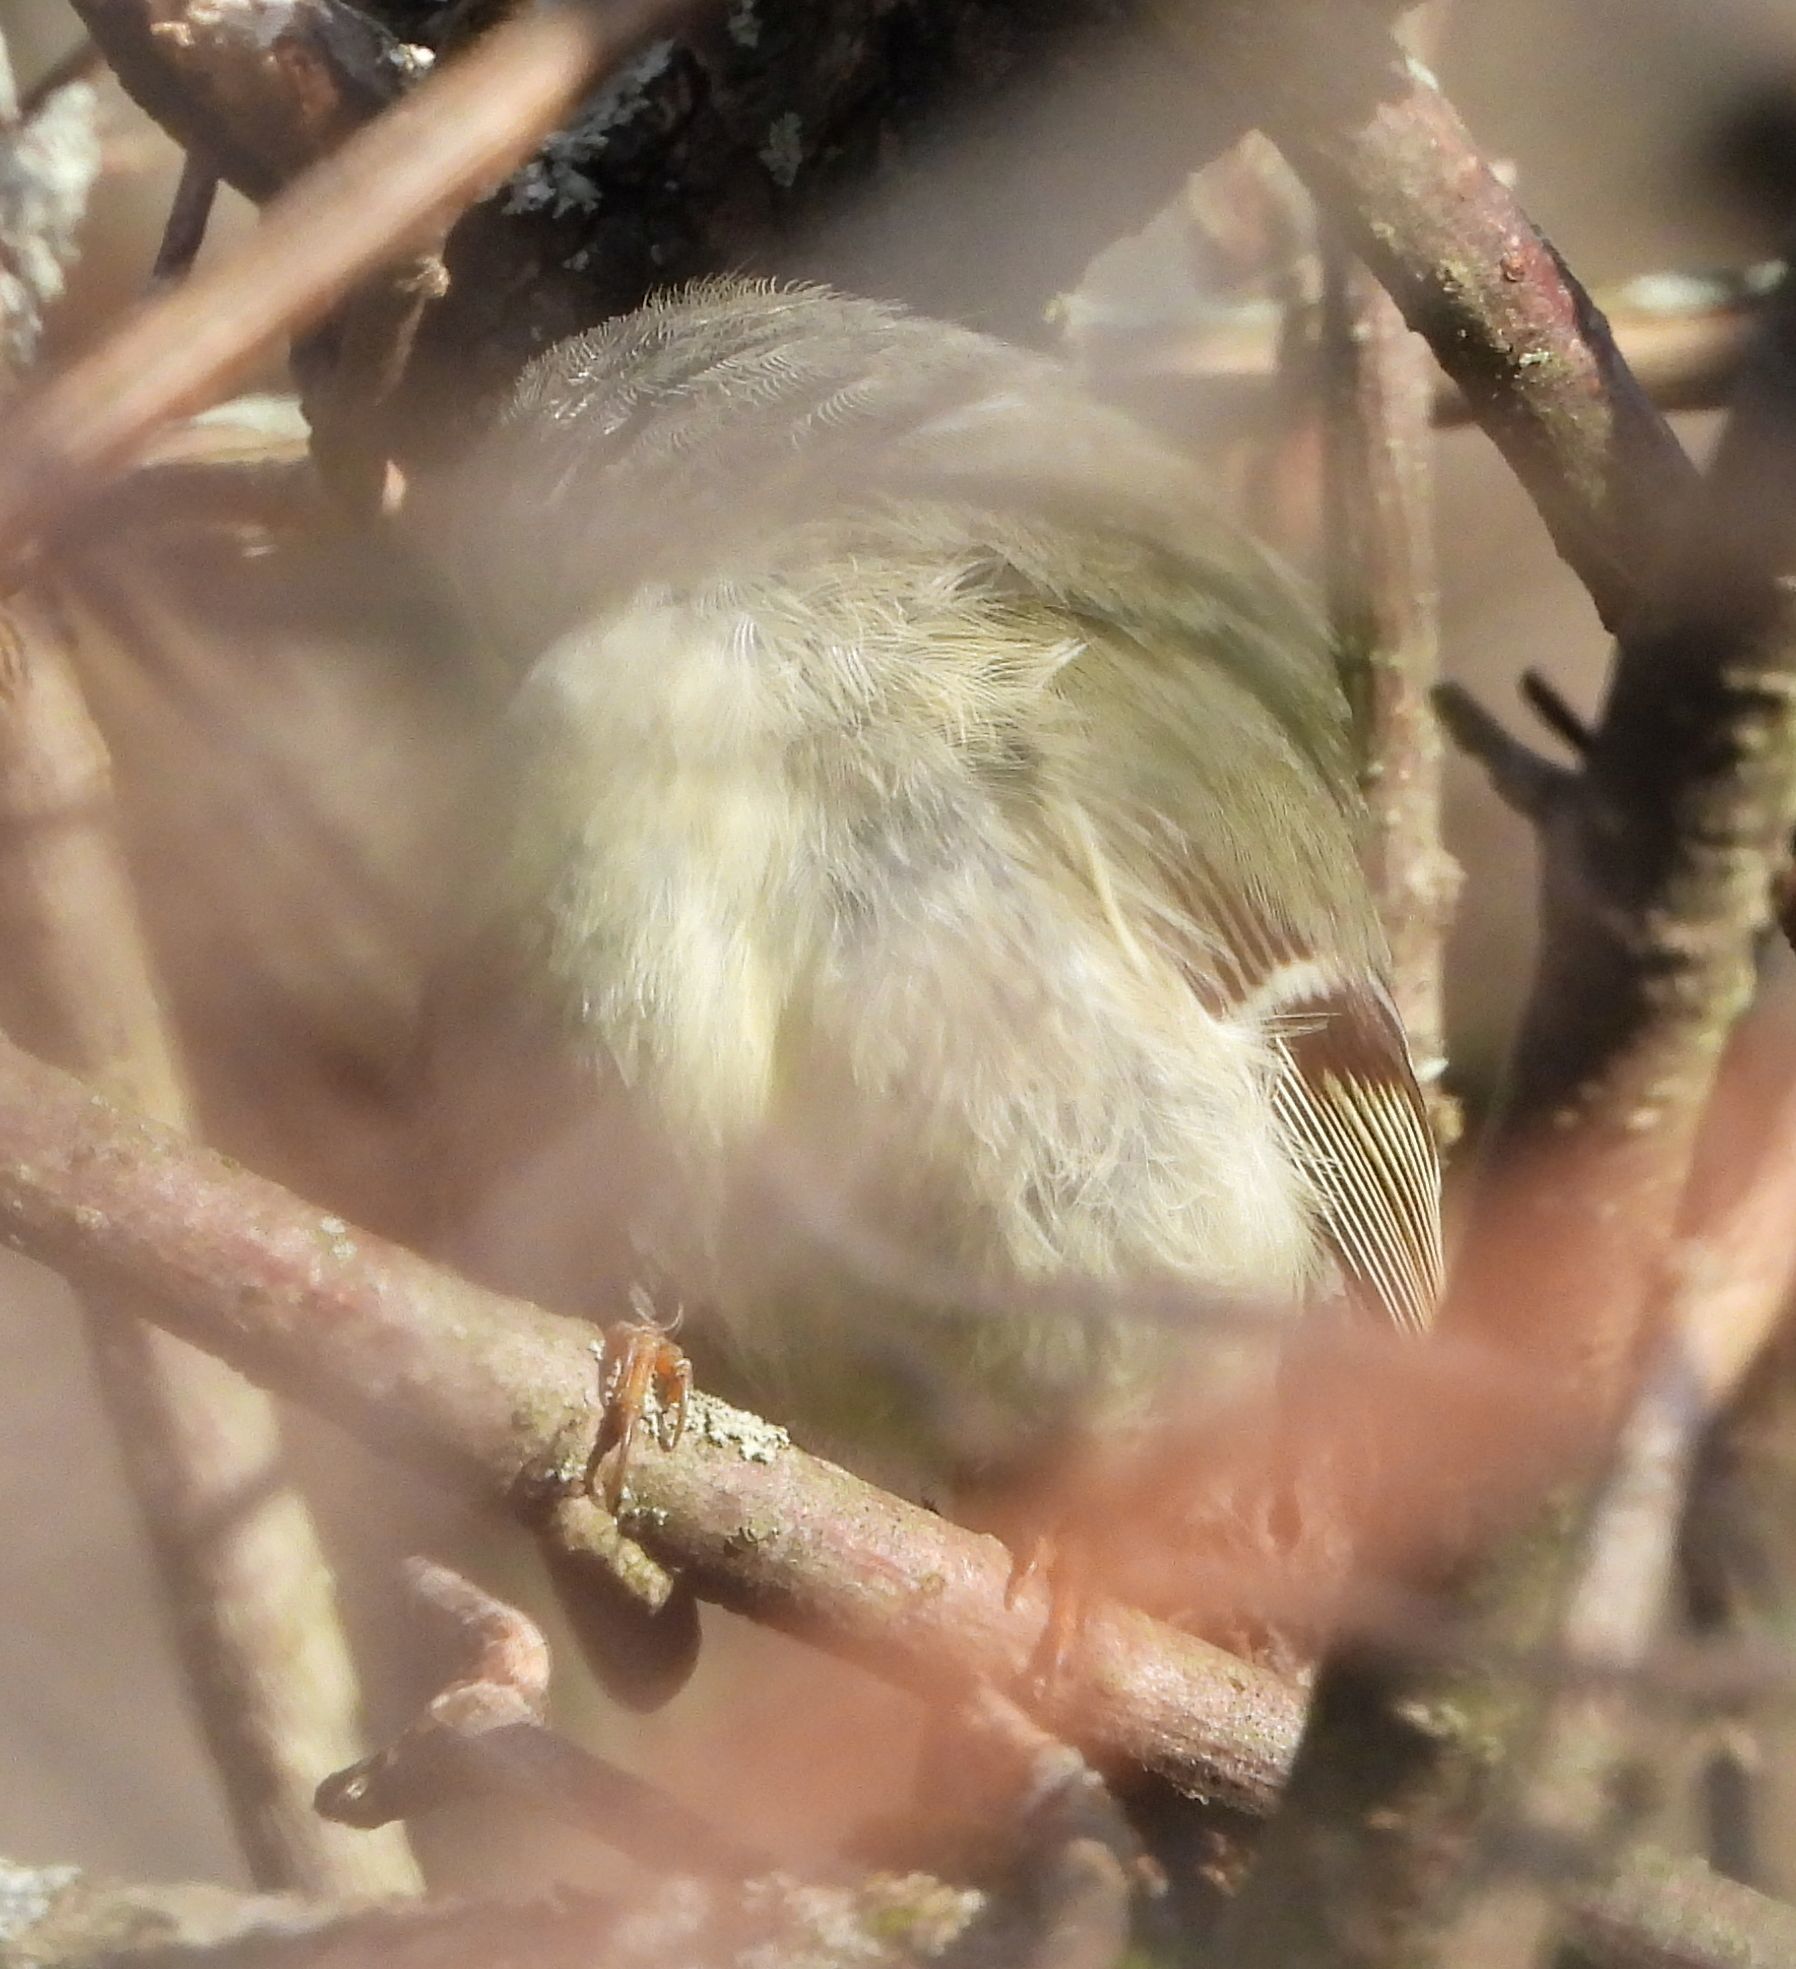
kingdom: Animalia
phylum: Chordata
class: Aves
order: Passeriformes
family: Regulidae
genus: Regulus
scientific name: Regulus calendula
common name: Ruby-crowned kinglet
